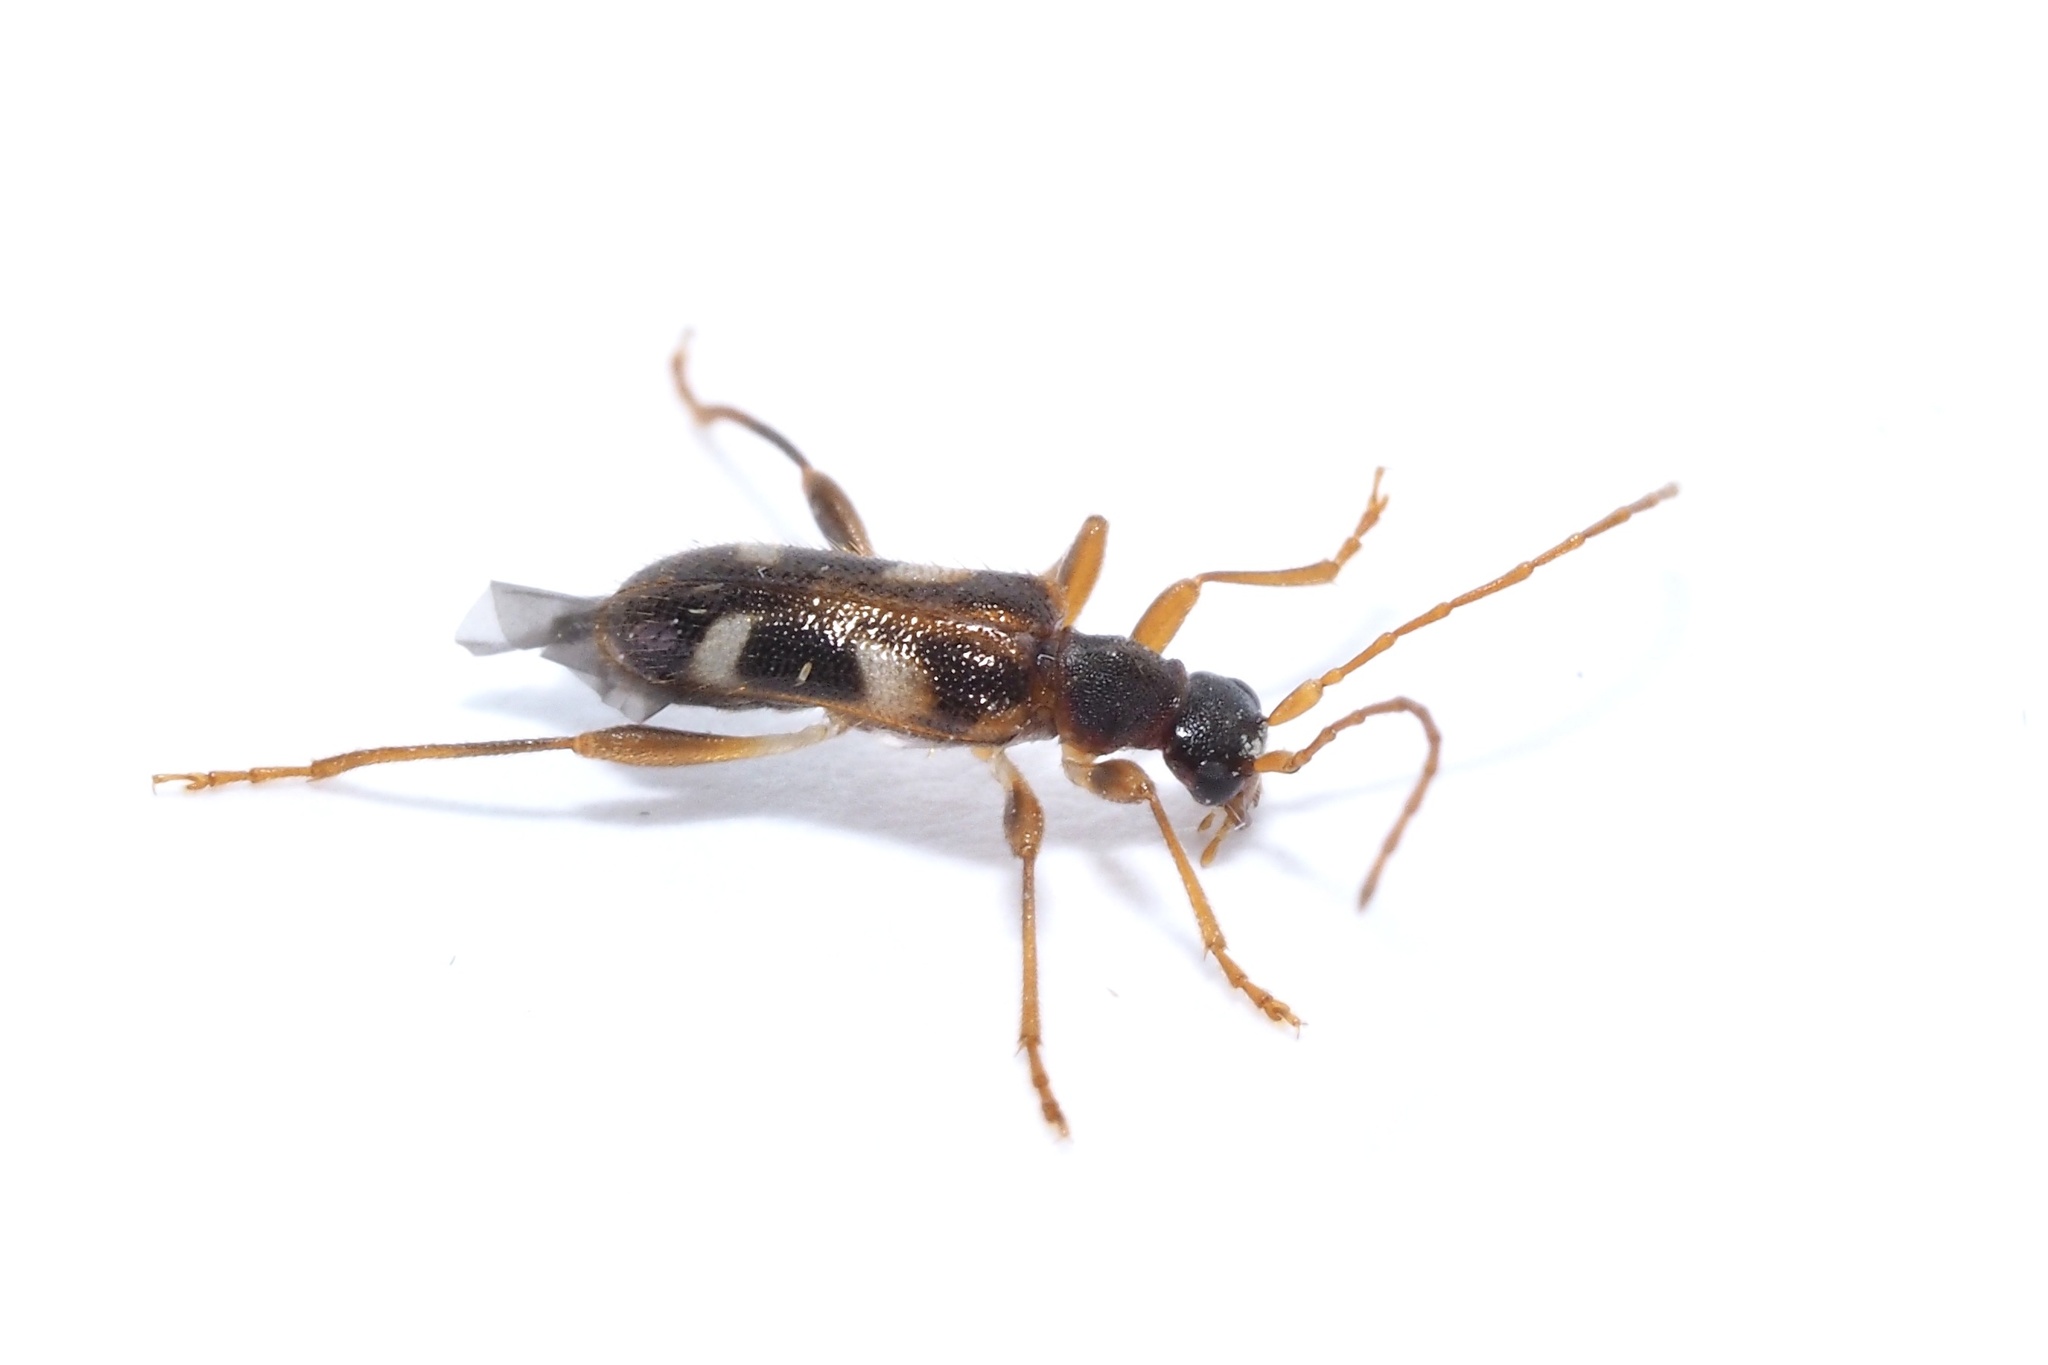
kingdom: Animalia
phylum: Arthropoda
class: Insecta
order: Coleoptera
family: Cerambycidae
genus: Pidonia
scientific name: Pidonia puziloi
